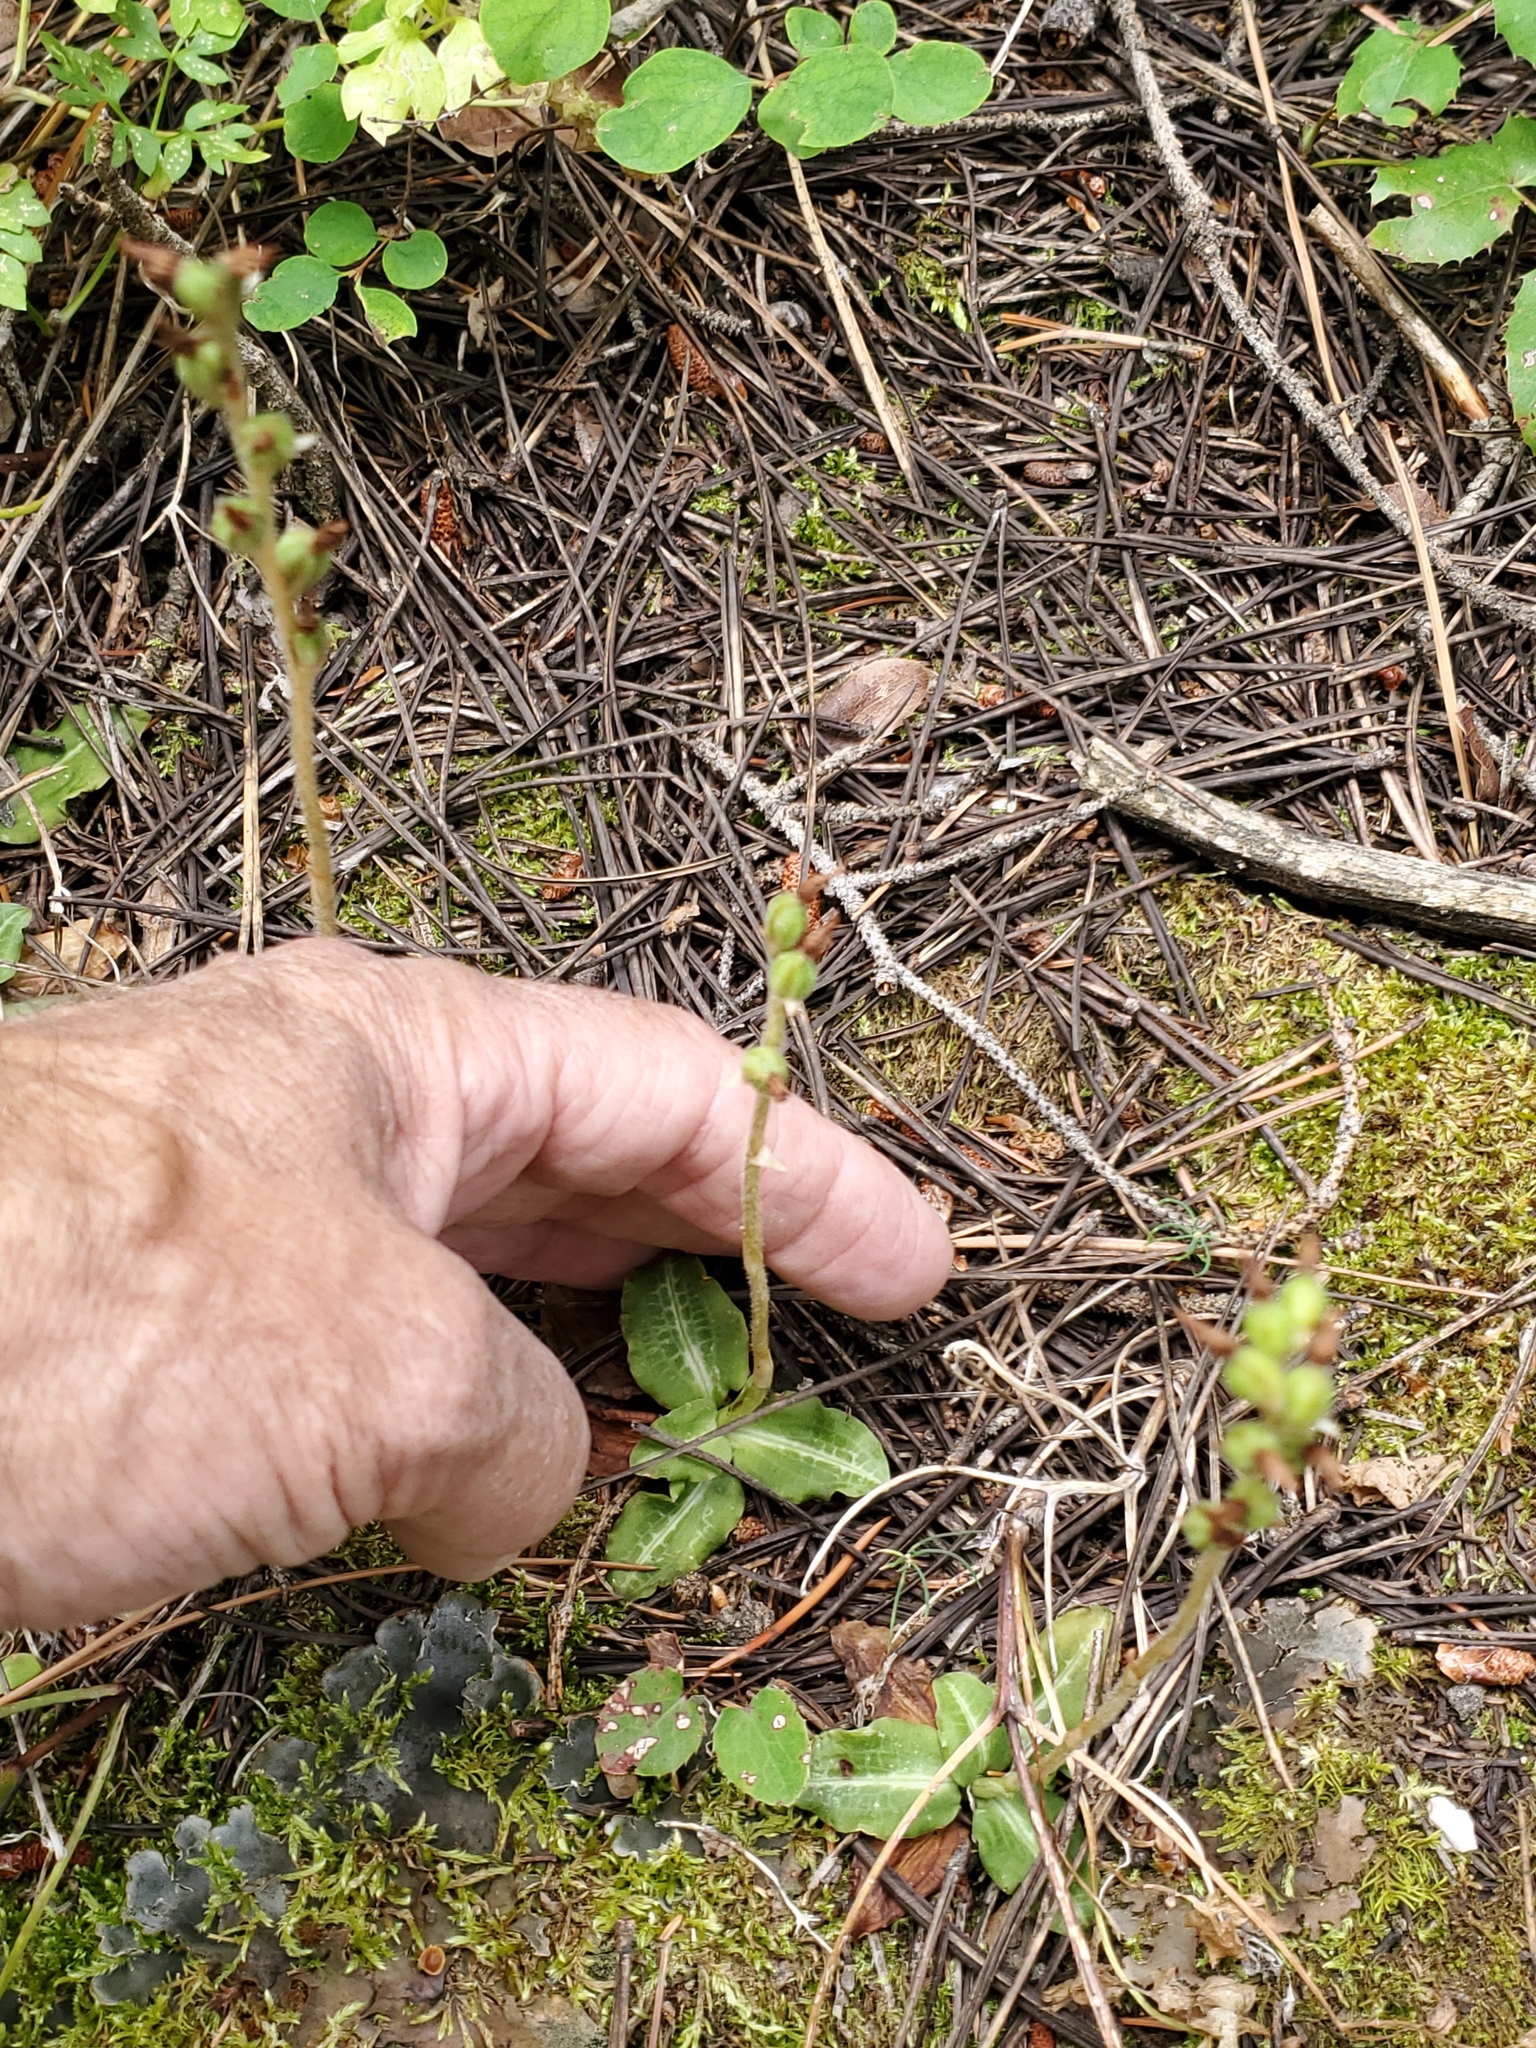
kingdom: Plantae
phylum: Tracheophyta
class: Liliopsida
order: Asparagales
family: Orchidaceae
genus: Goodyera
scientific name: Goodyera oblongifolia
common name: Giant rattlesnake-plantain
